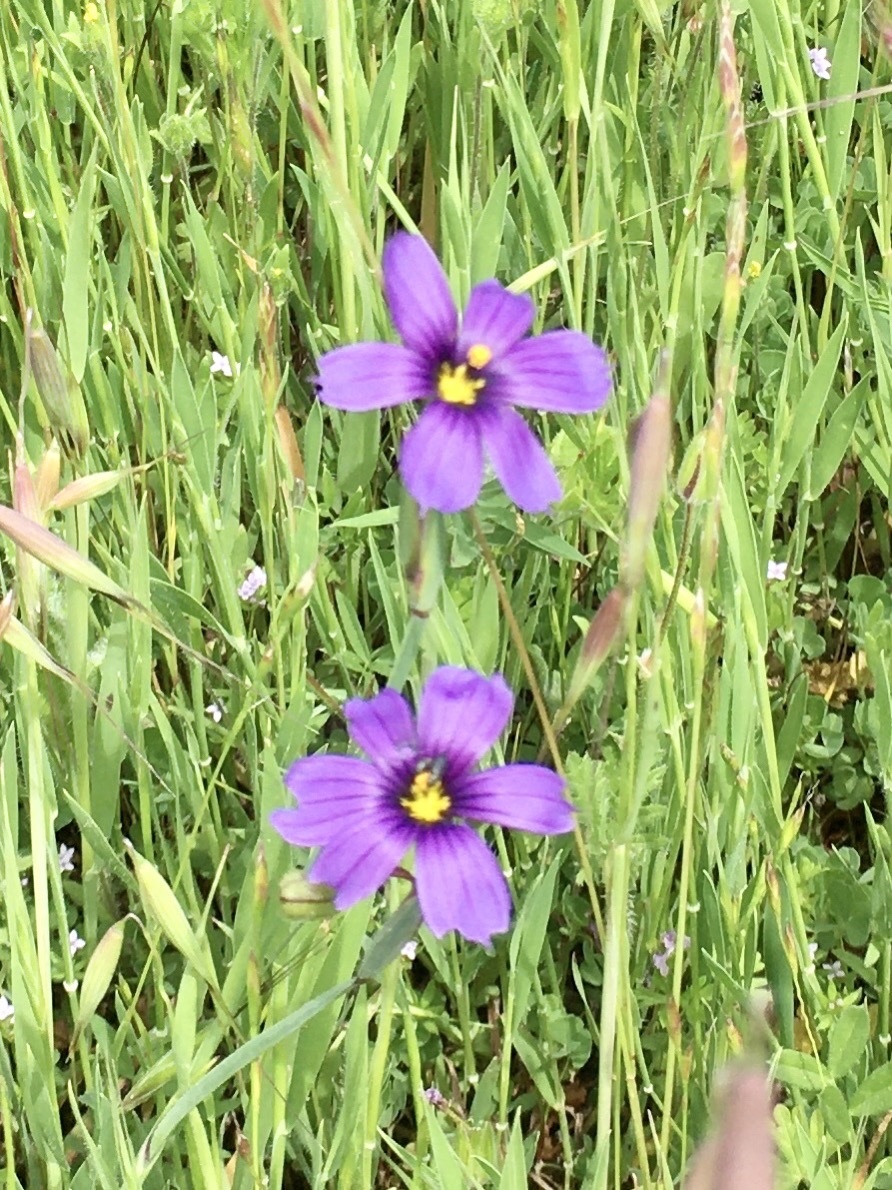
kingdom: Plantae
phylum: Tracheophyta
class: Liliopsida
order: Asparagales
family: Iridaceae
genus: Sisyrinchium
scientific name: Sisyrinchium bellum
